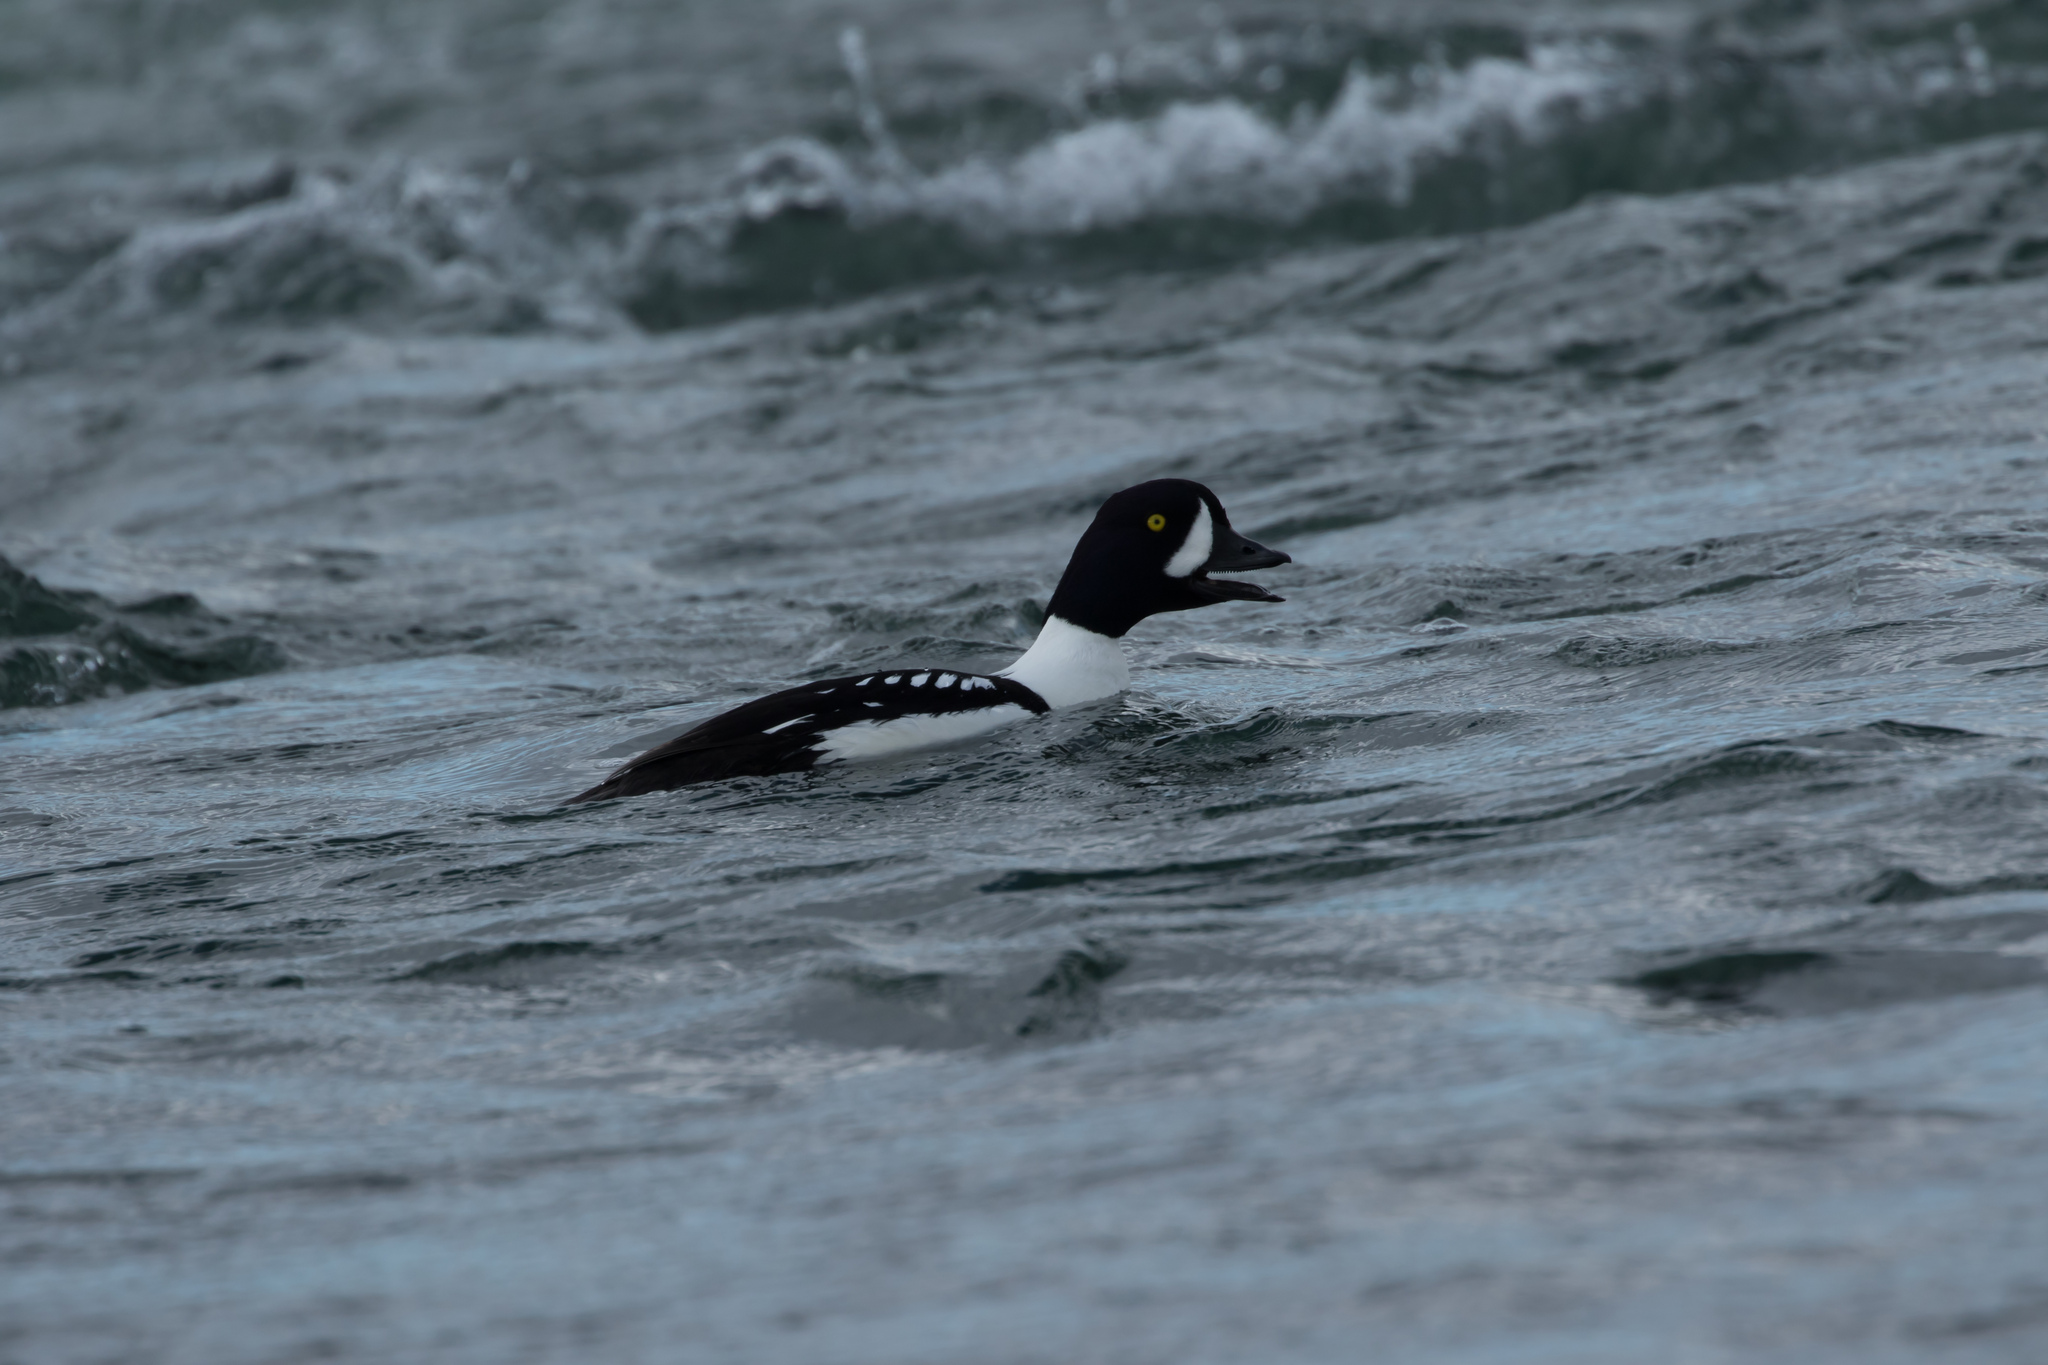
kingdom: Animalia
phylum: Chordata
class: Aves
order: Anseriformes
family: Anatidae
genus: Bucephala
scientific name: Bucephala islandica
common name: Barrow's goldeneye
